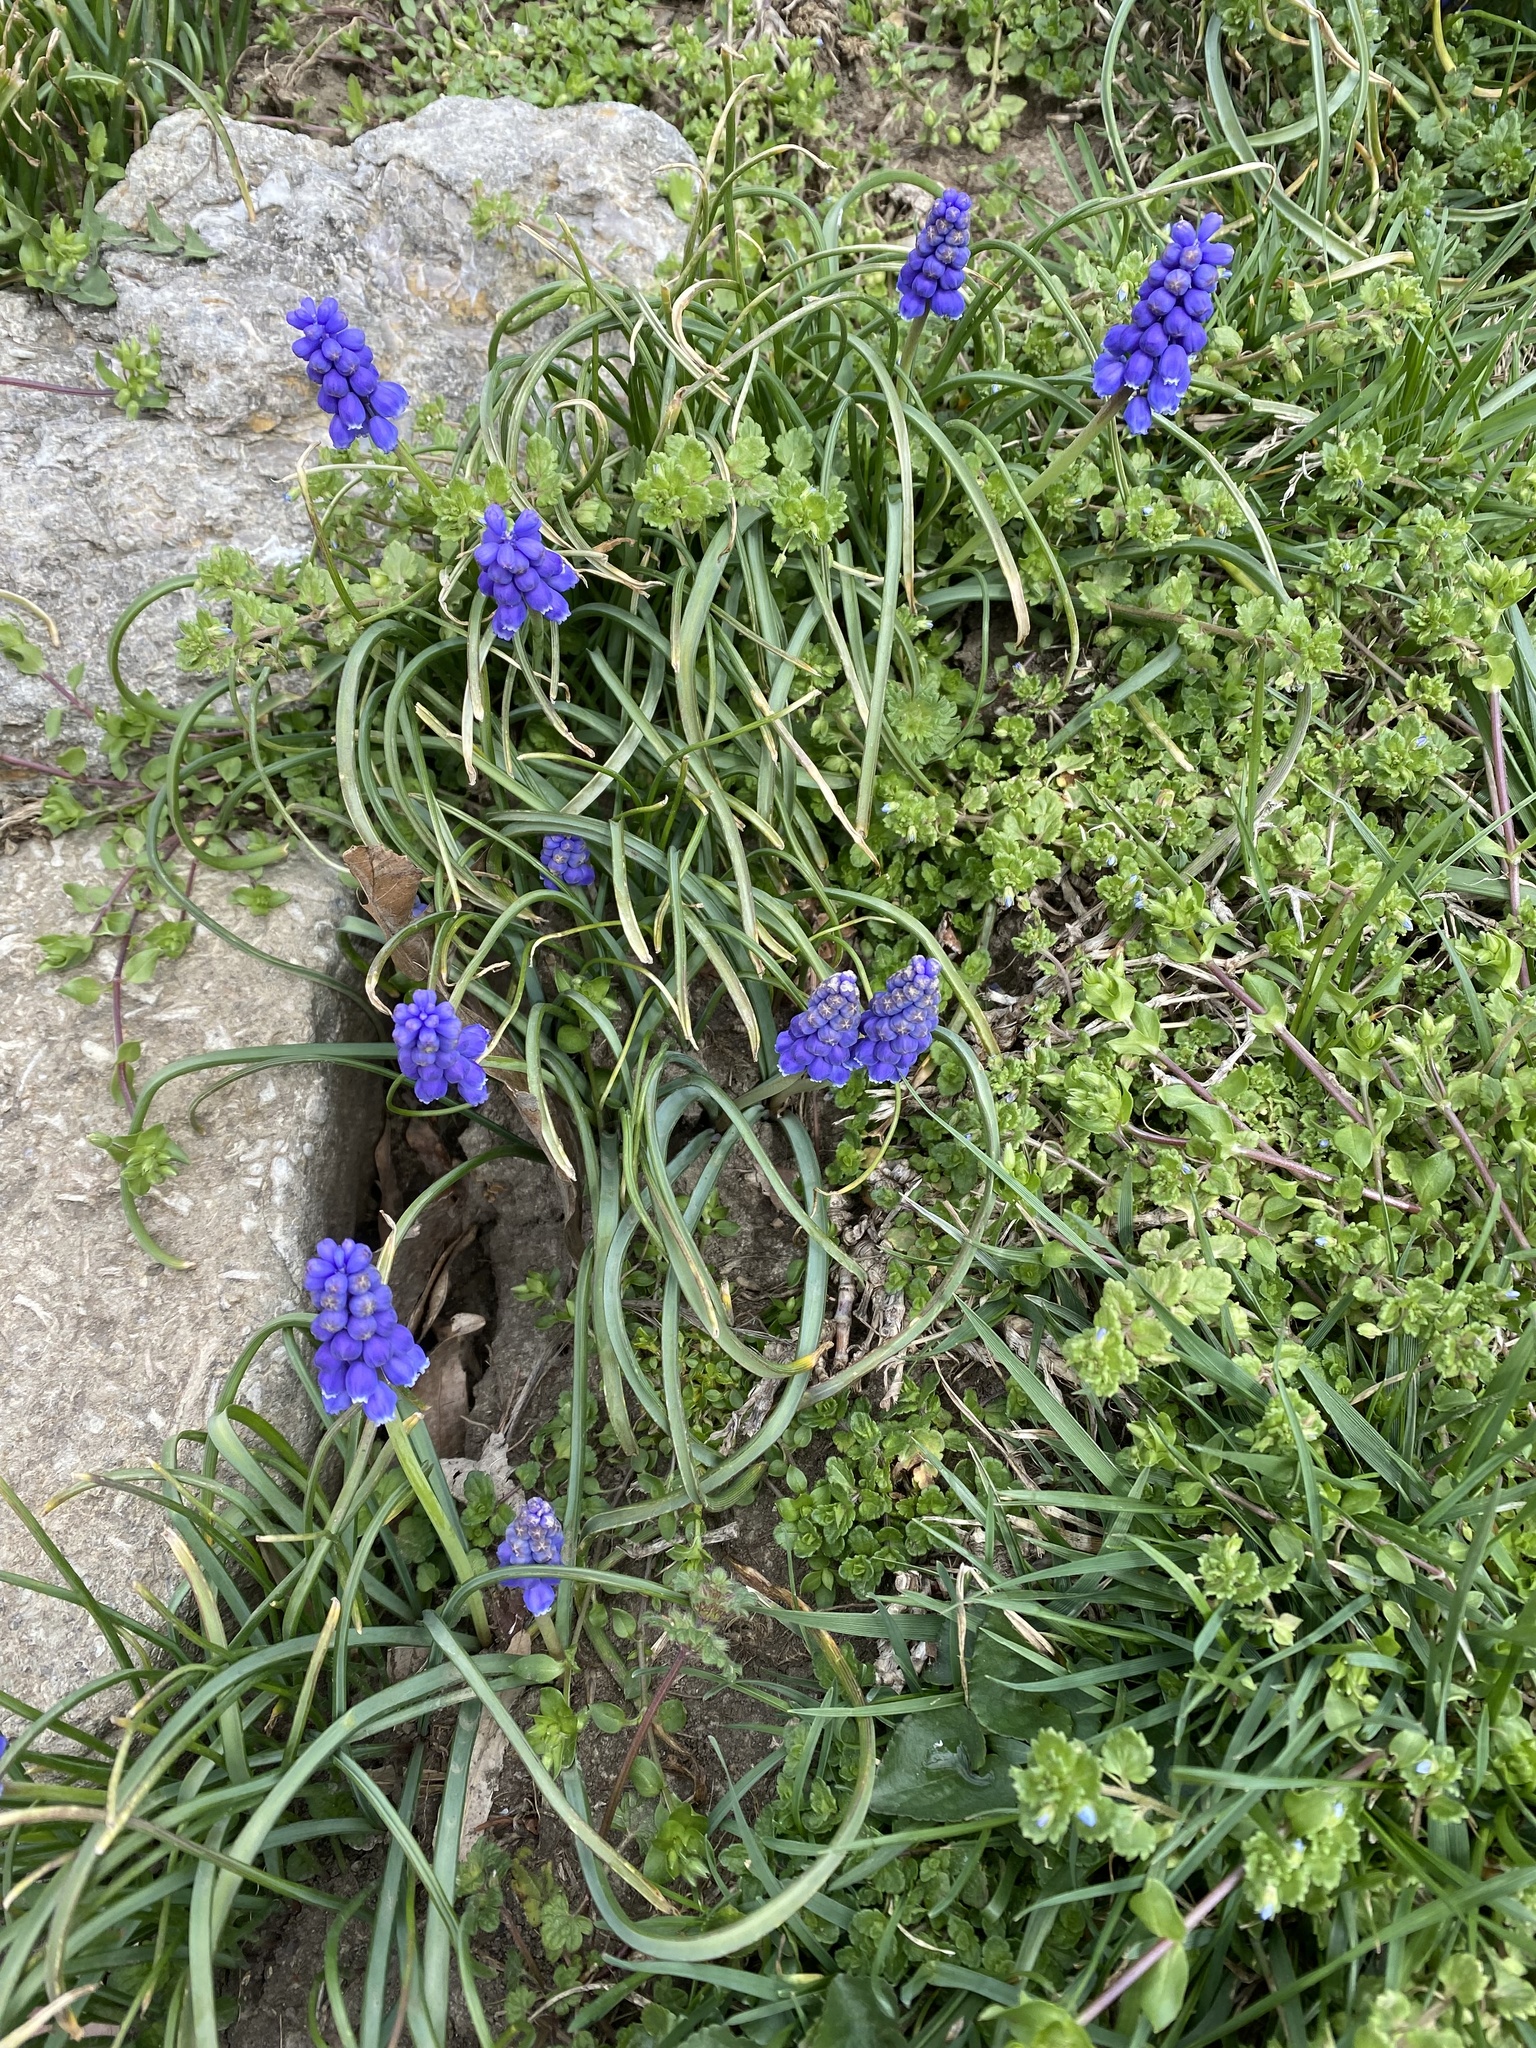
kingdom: Plantae
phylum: Tracheophyta
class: Liliopsida
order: Asparagales
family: Asparagaceae
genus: Muscari
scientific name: Muscari armeniacum
